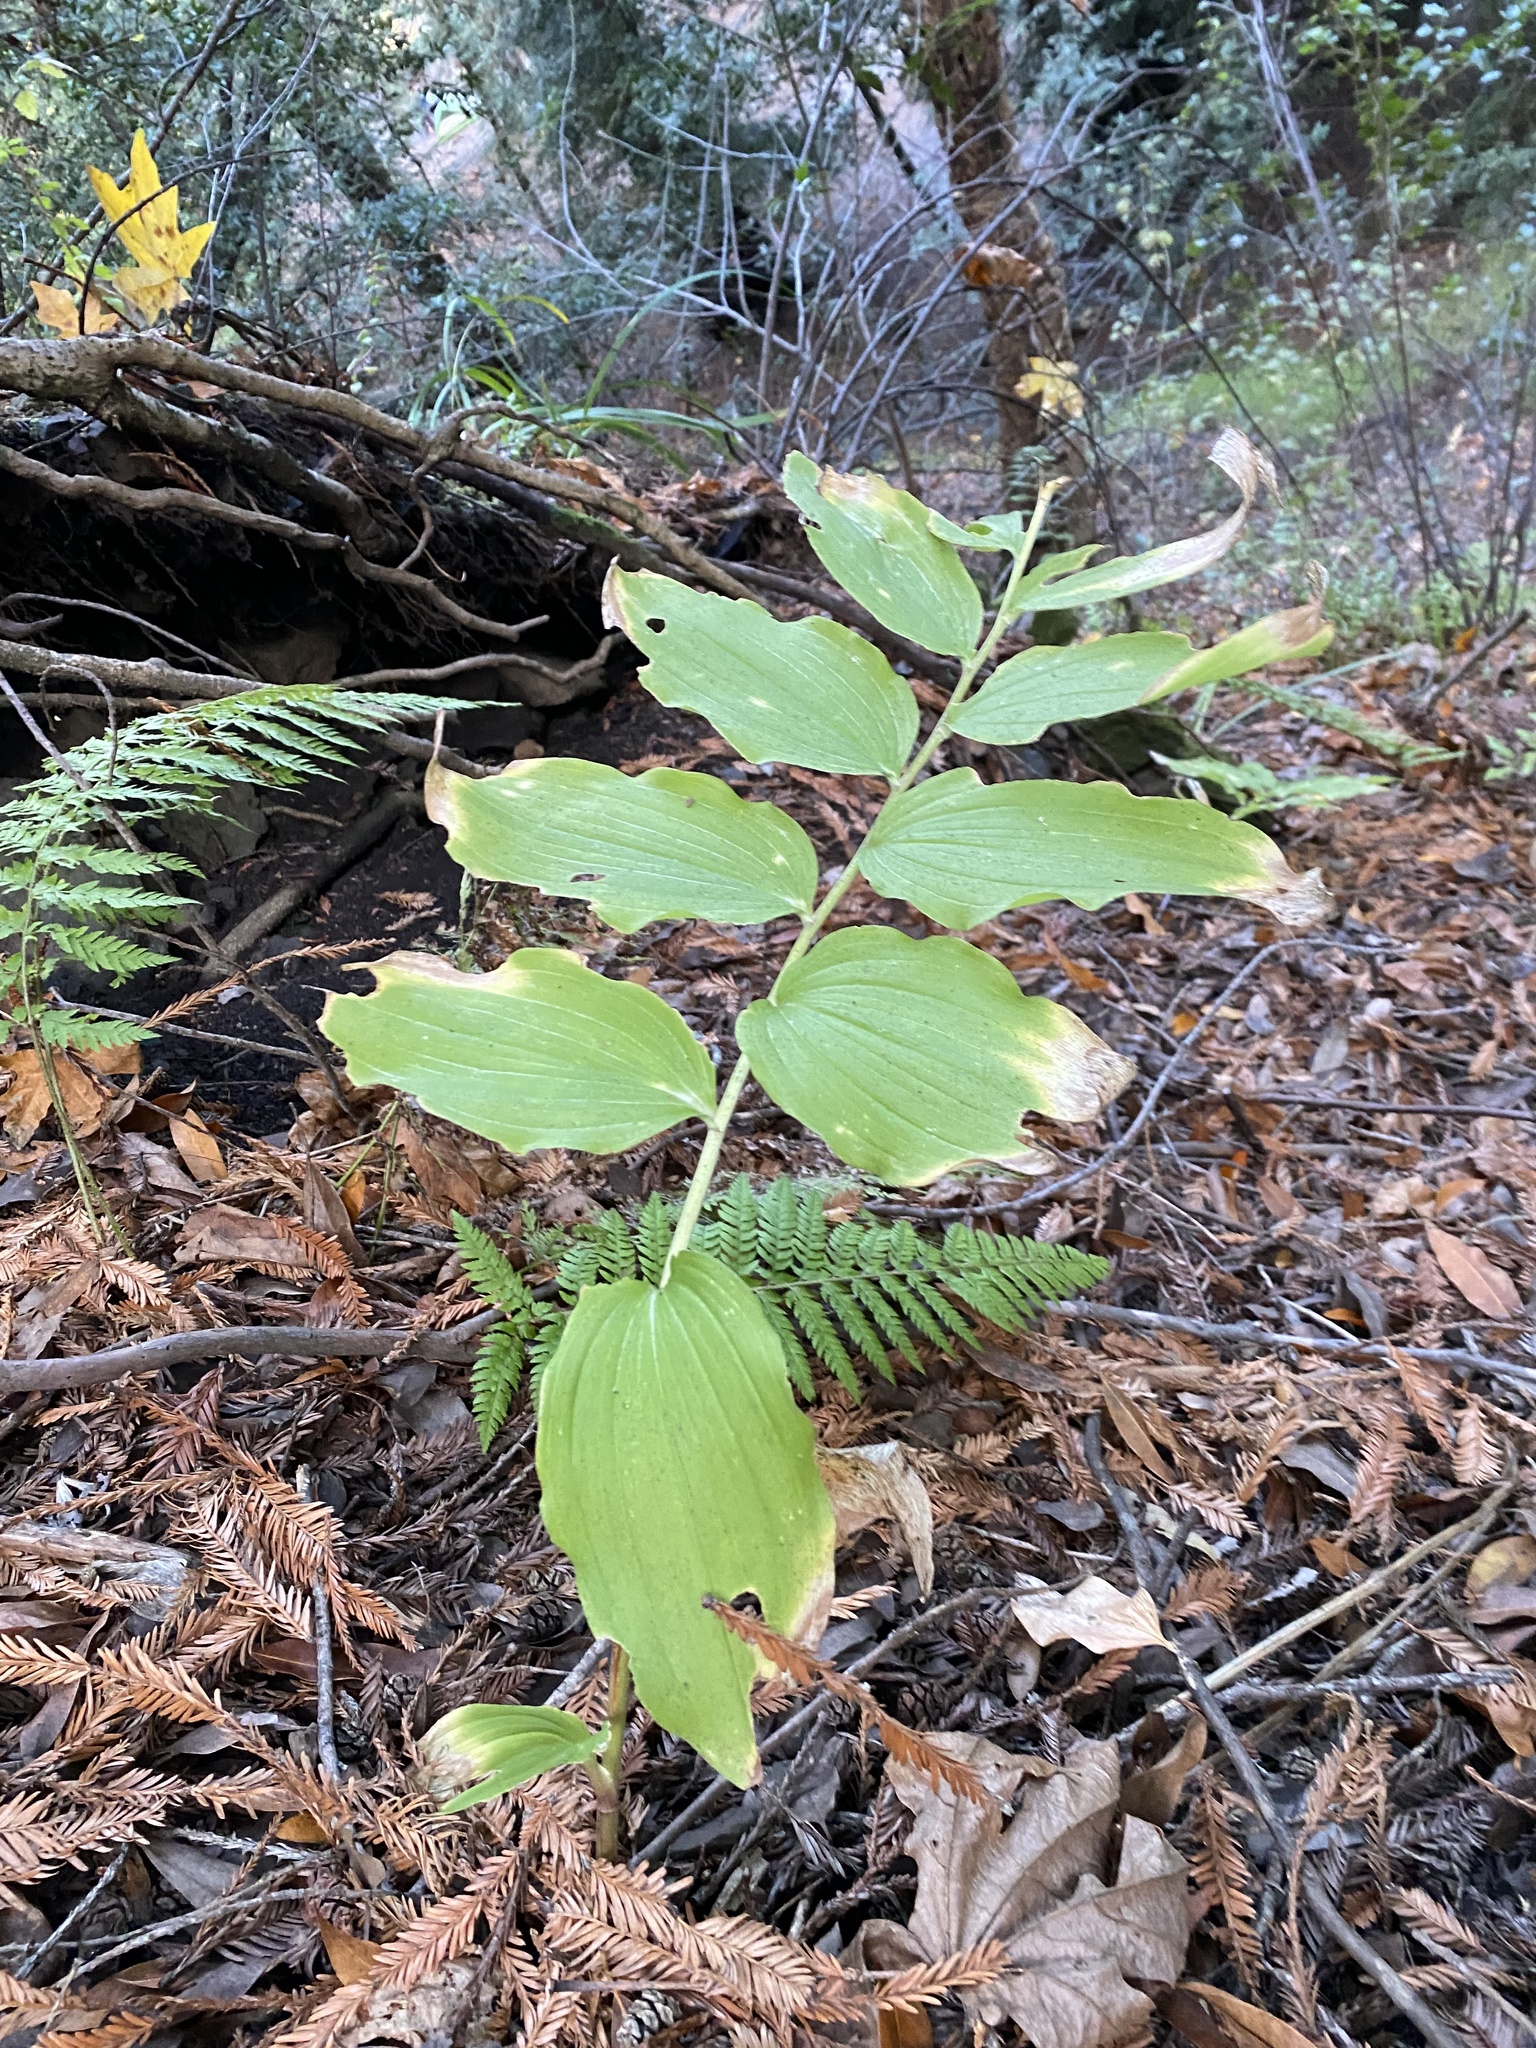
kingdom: Plantae
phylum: Tracheophyta
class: Liliopsida
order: Asparagales
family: Asparagaceae
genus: Maianthemum
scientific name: Maianthemum racemosum
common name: False spikenard
